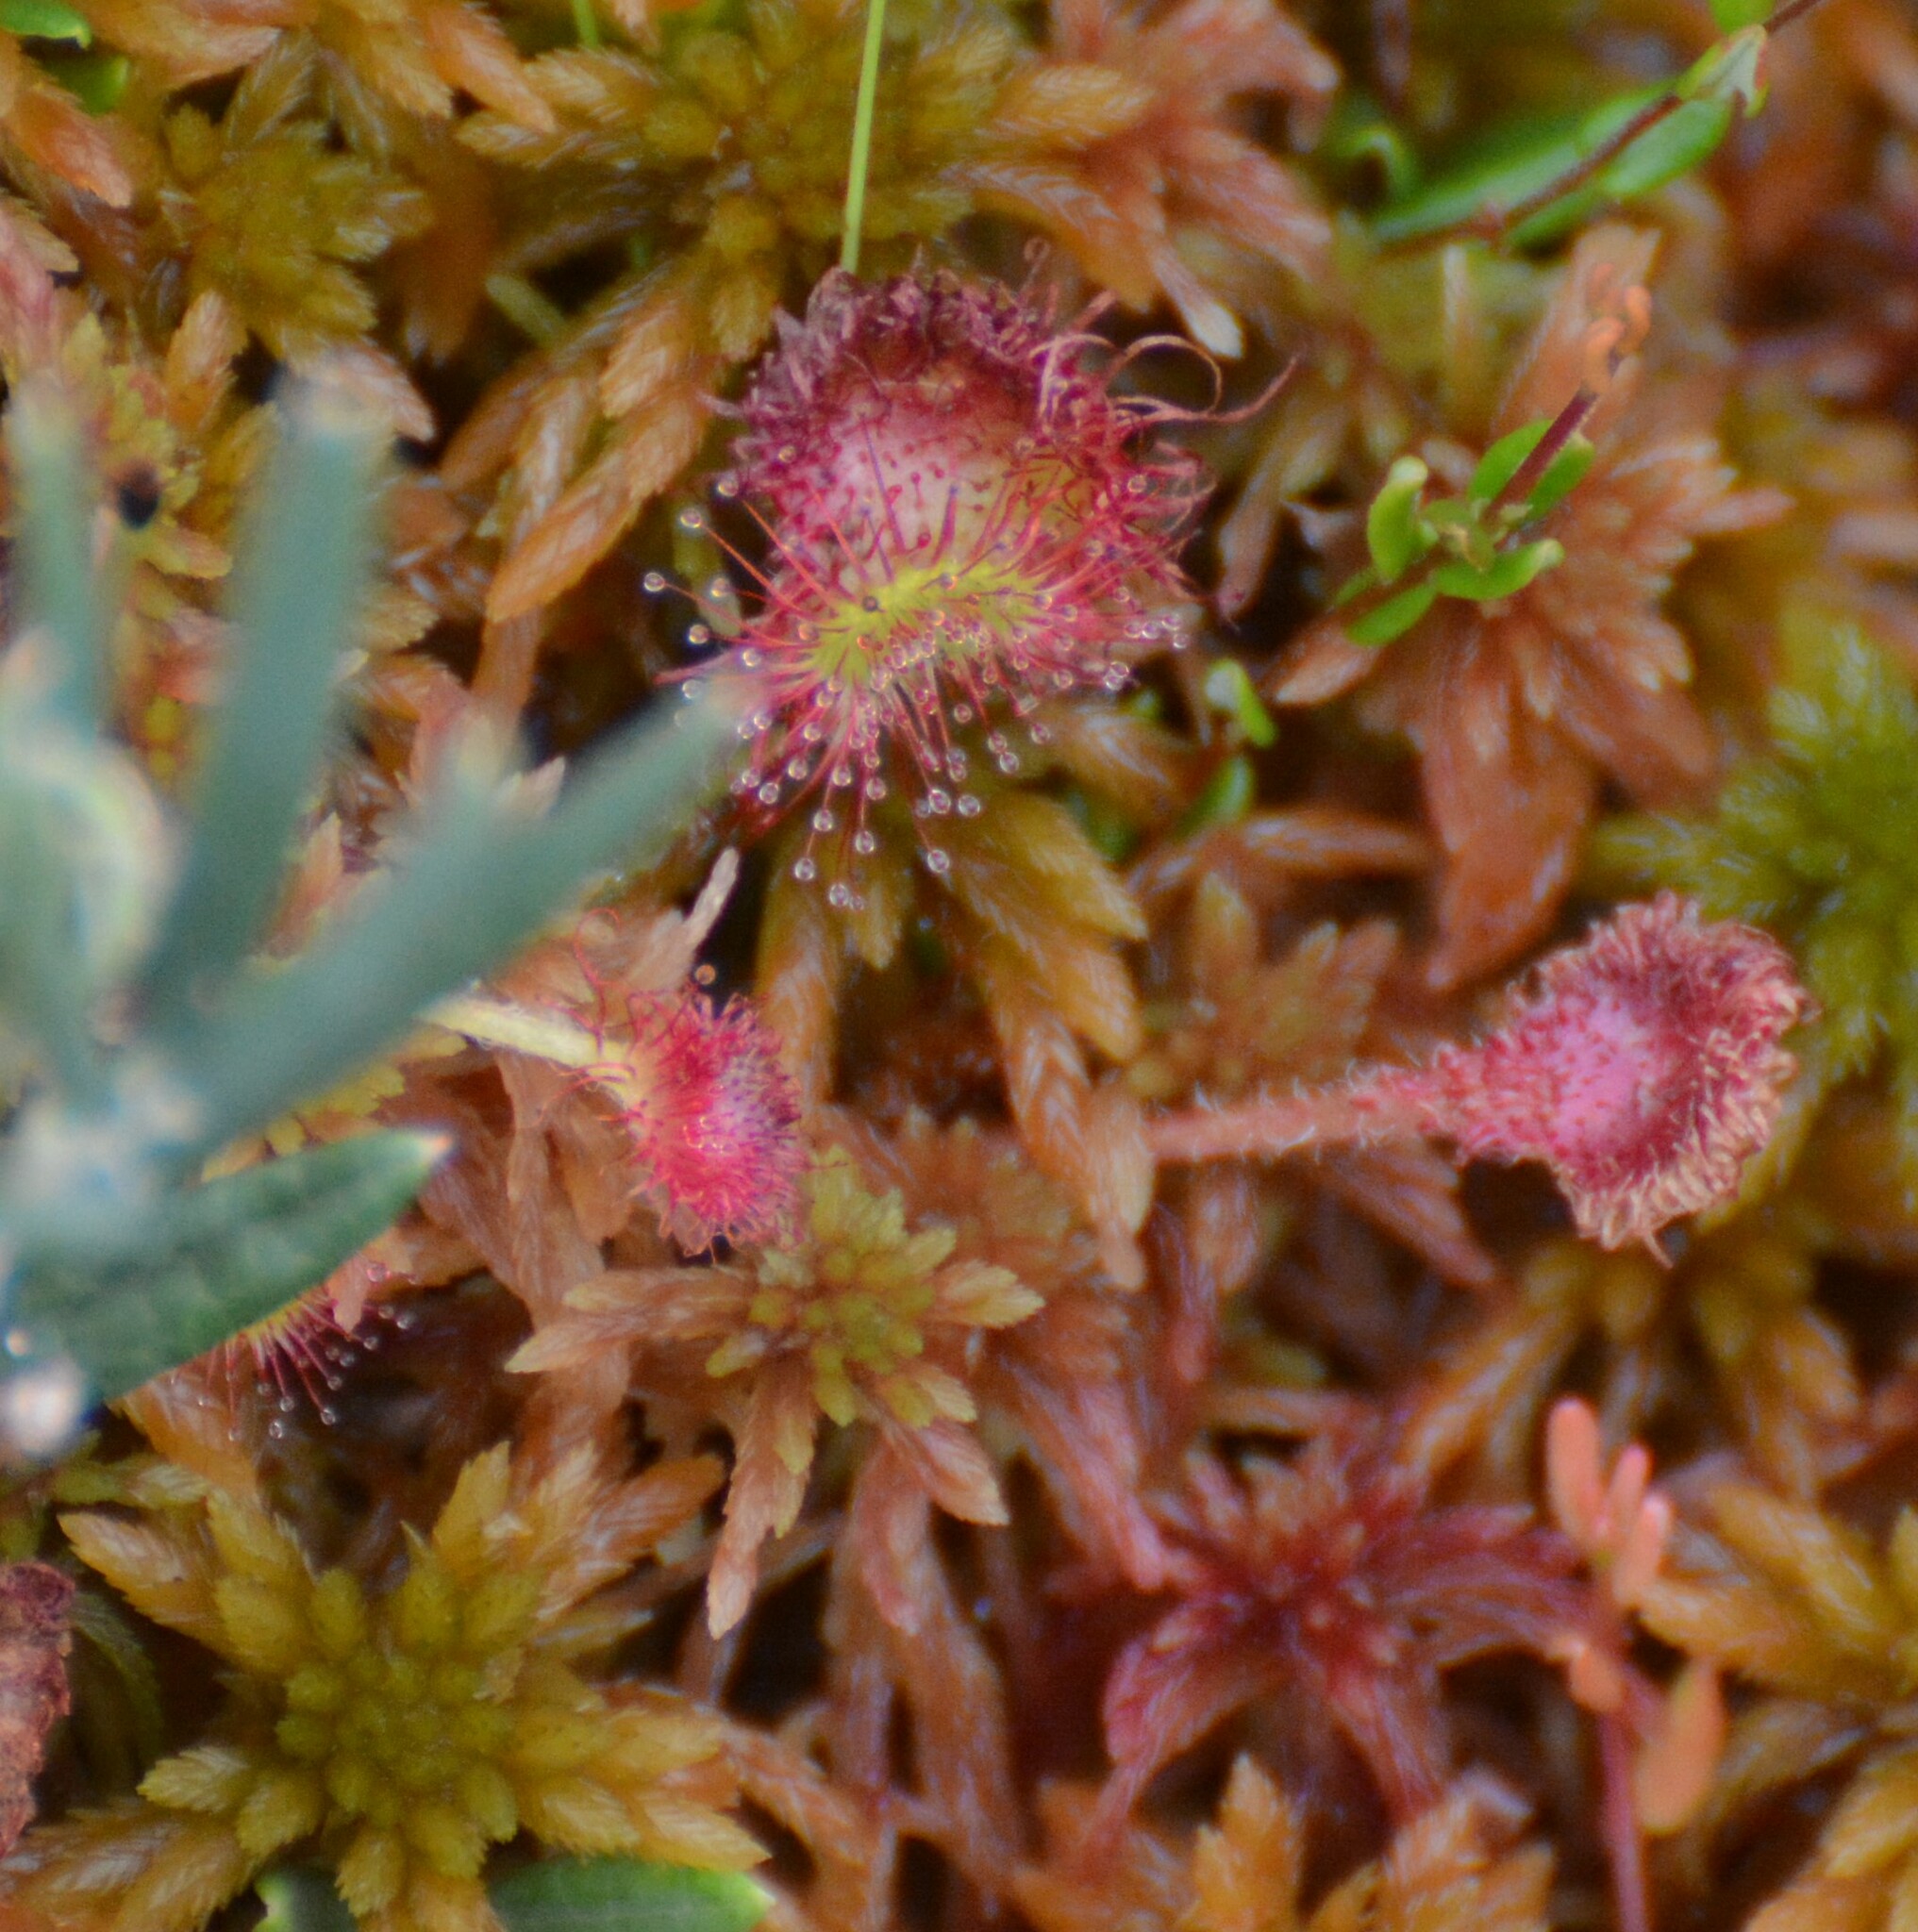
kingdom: Plantae
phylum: Tracheophyta
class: Magnoliopsida
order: Caryophyllales
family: Droseraceae
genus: Drosera
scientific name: Drosera rotundifolia
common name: Round-leaved sundew
